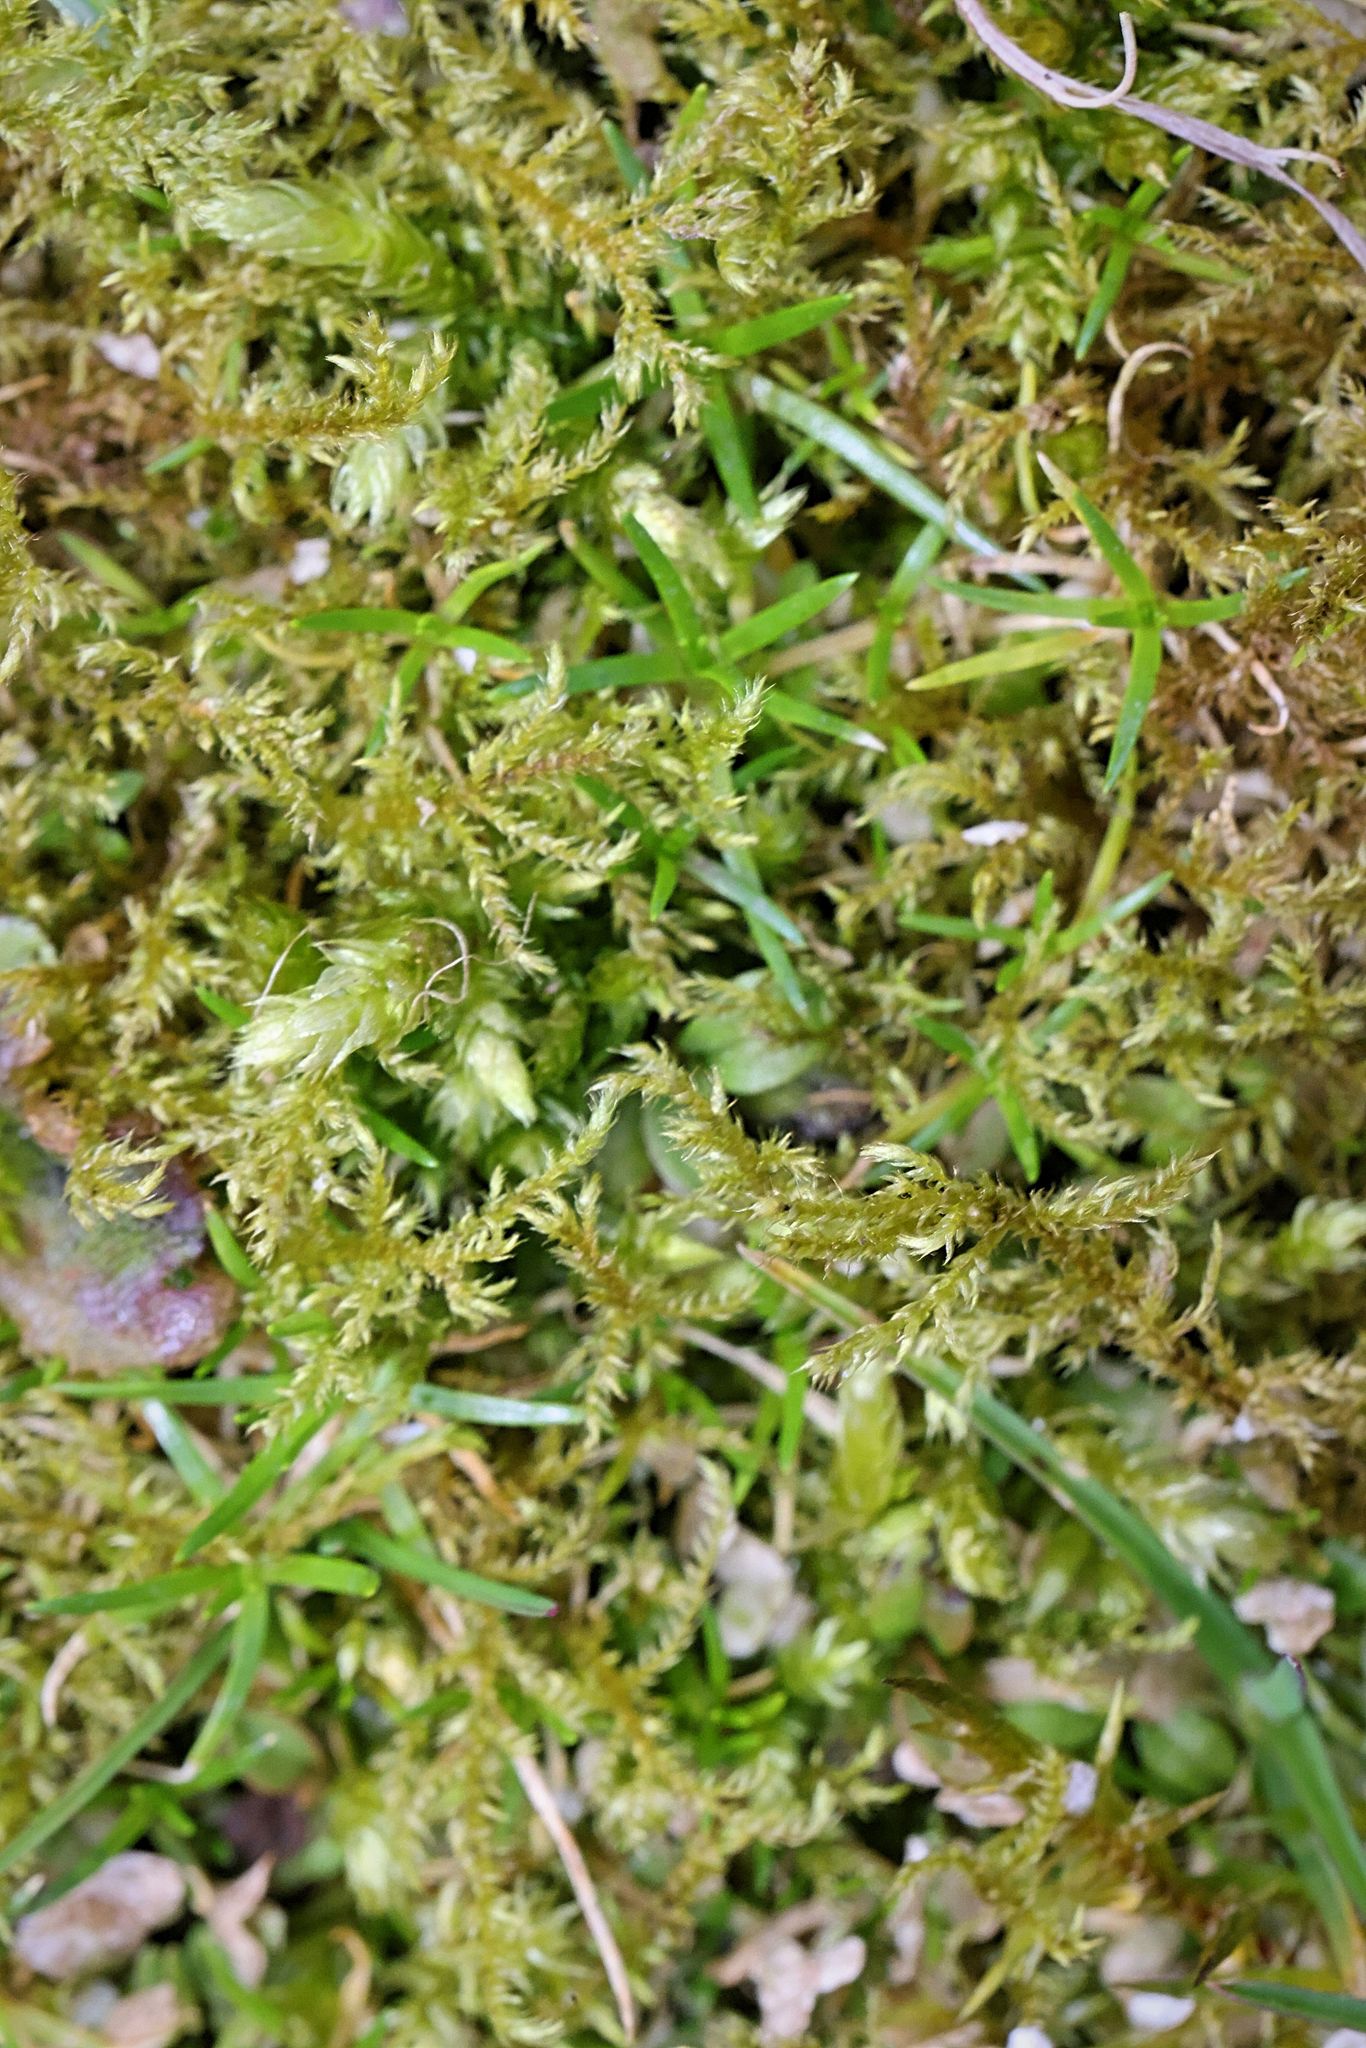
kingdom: Plantae
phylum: Bryophyta
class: Bryopsida
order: Hypnales
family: Pylaisiaceae
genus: Calliergonella
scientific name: Calliergonella cuspidata
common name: Common large wetland moss
